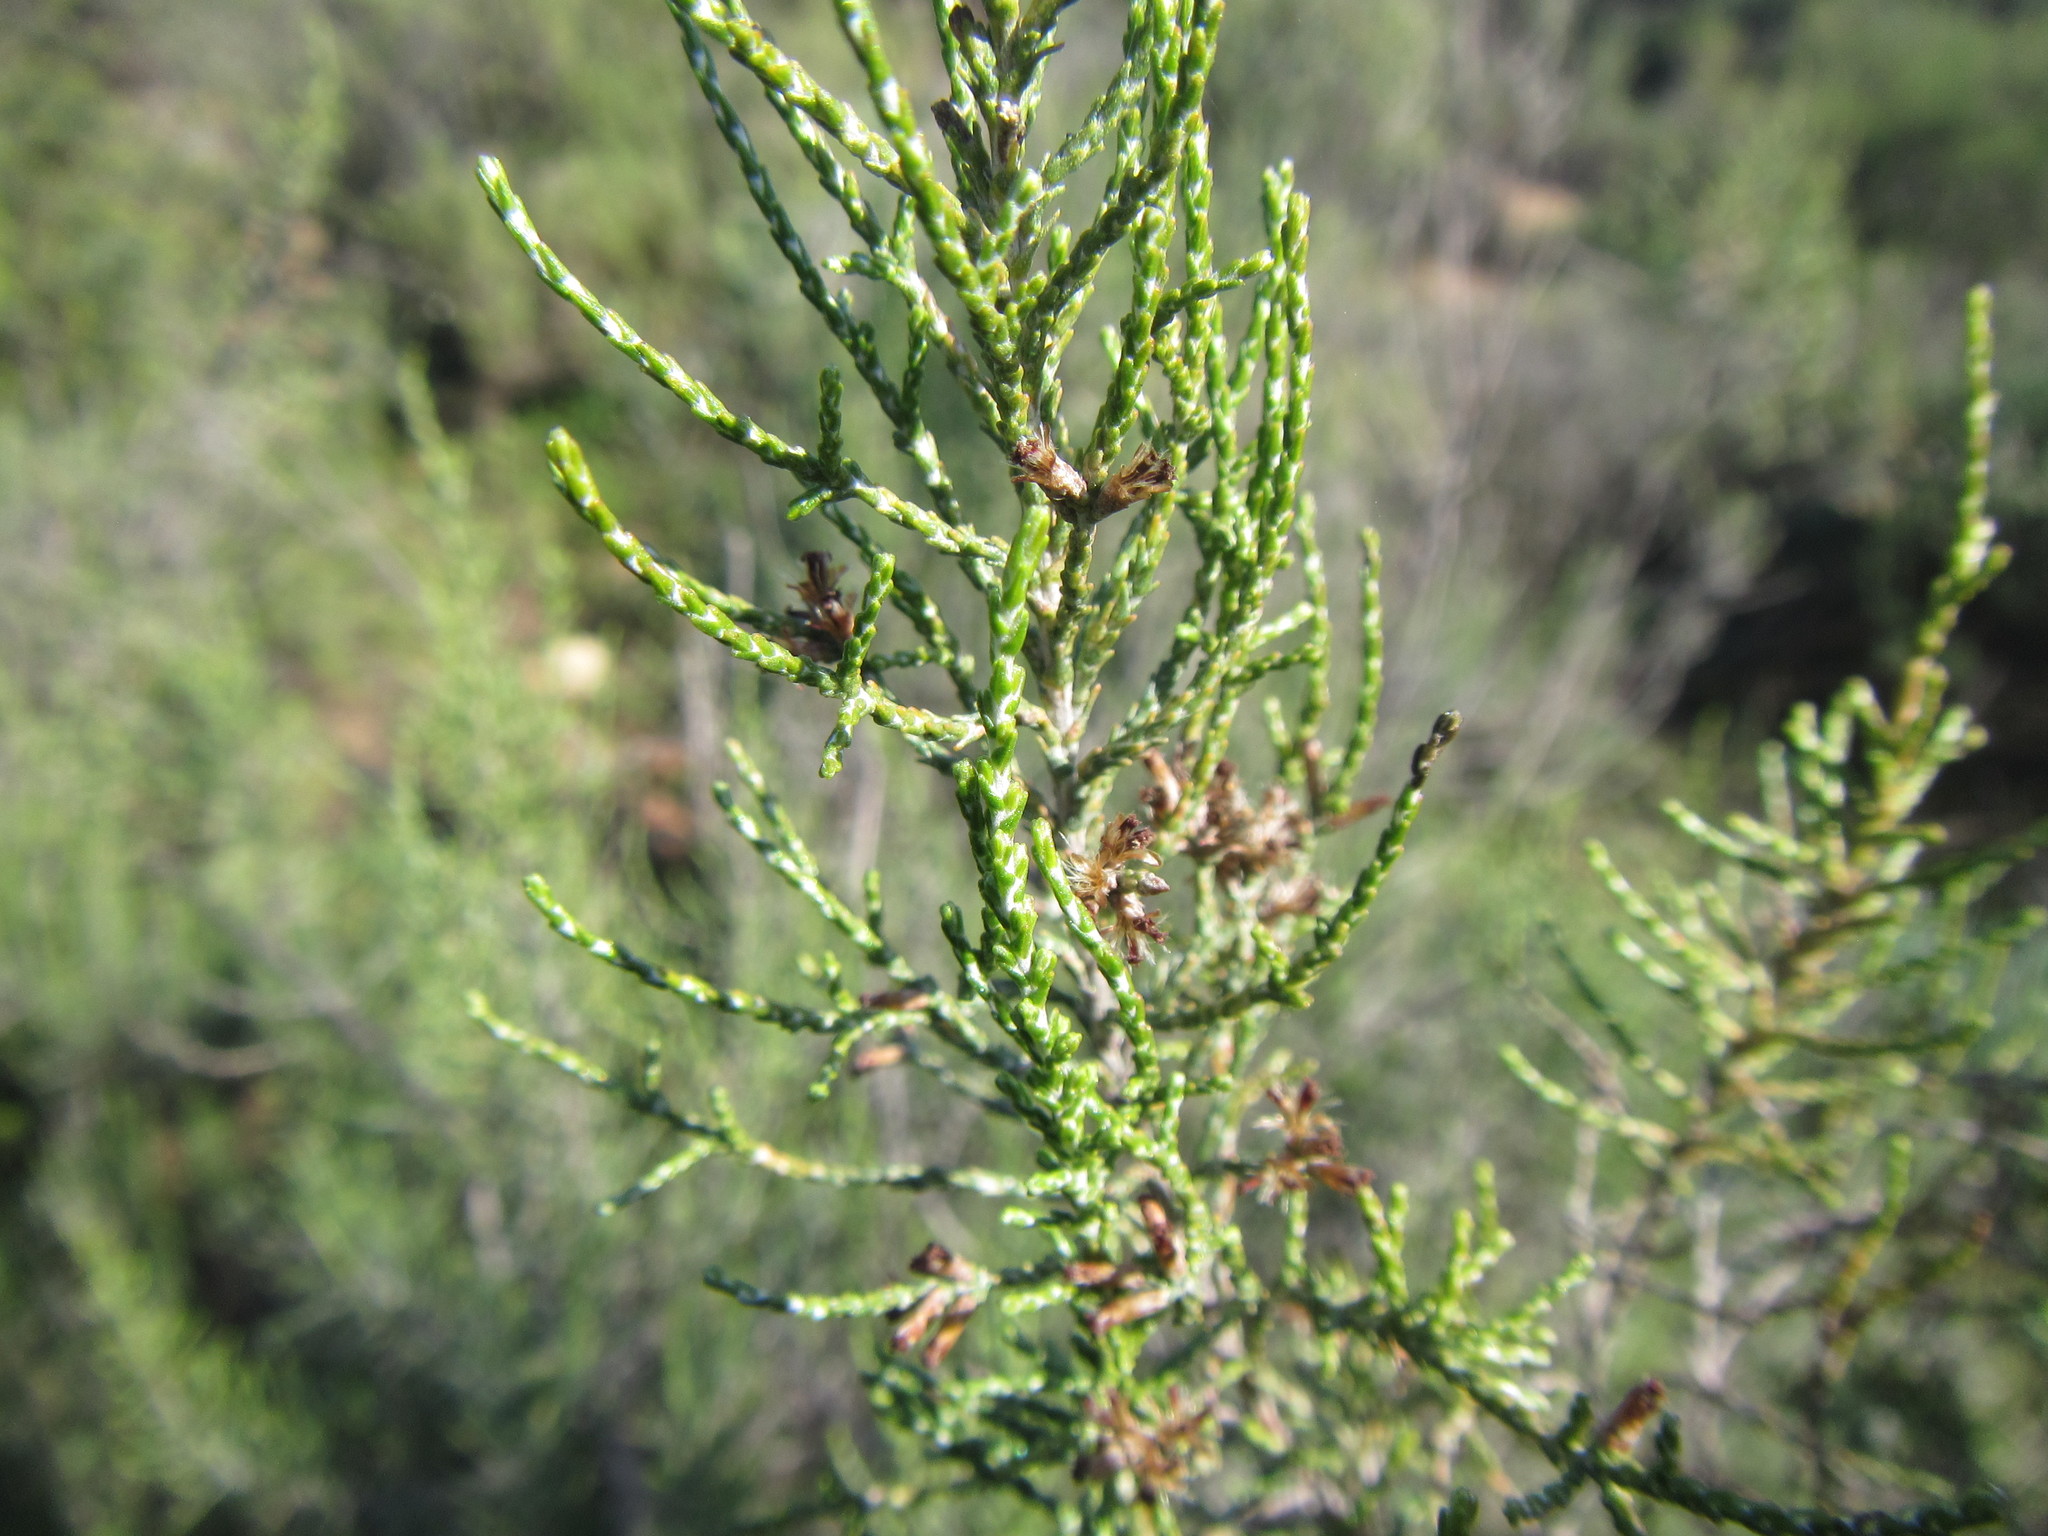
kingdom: Plantae
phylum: Tracheophyta
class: Magnoliopsida
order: Asterales
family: Asteraceae
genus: Dicerothamnus
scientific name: Dicerothamnus rhinocerotis
